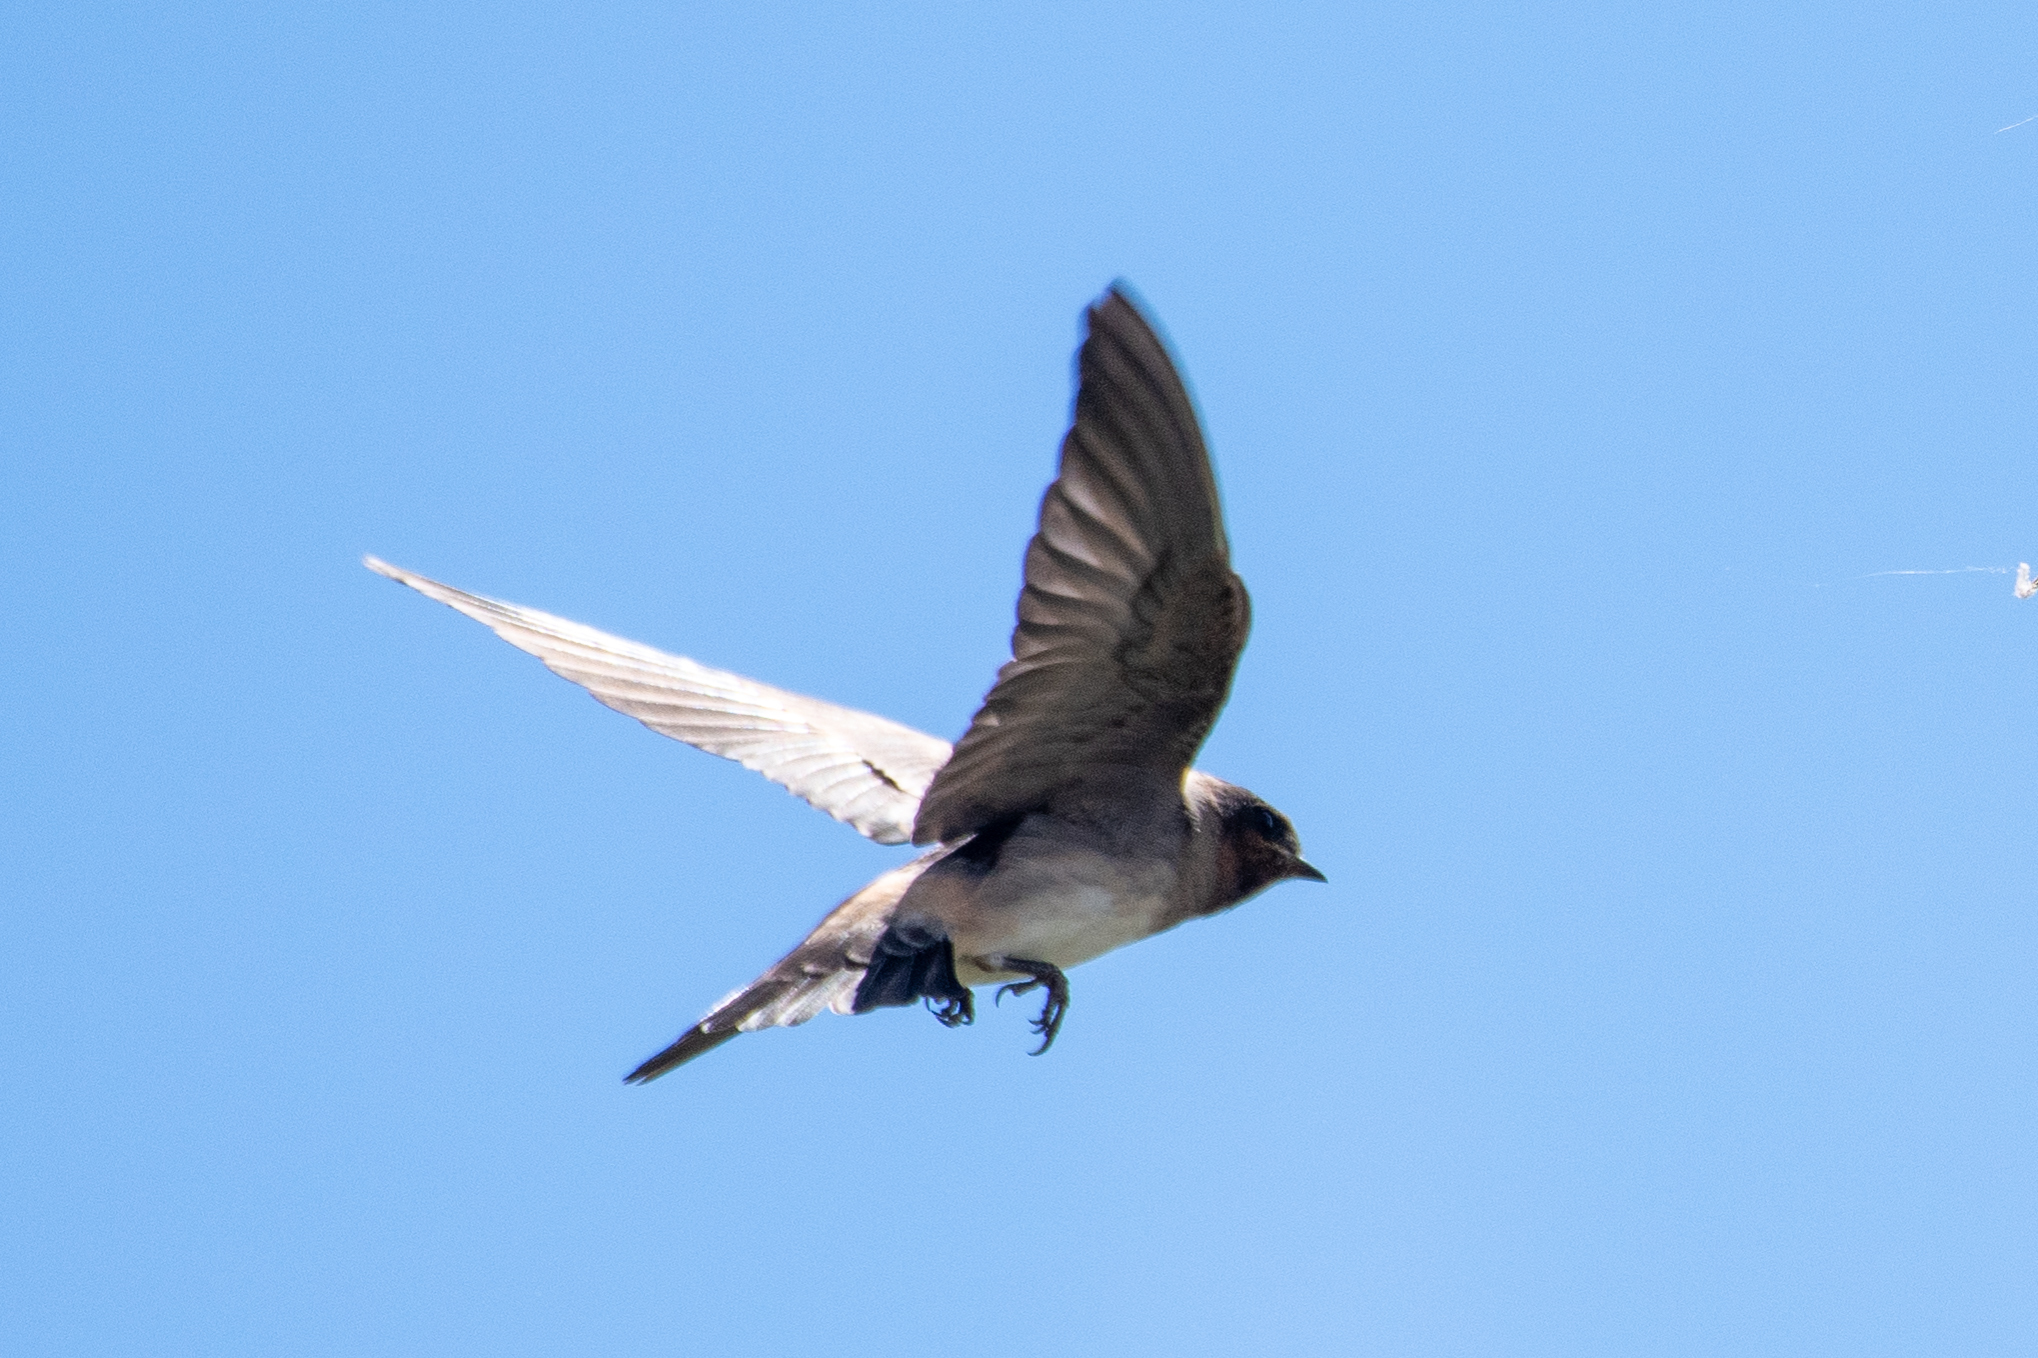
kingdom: Animalia
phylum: Chordata
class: Aves
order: Passeriformes
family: Hirundinidae
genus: Petrochelidon
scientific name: Petrochelidon pyrrhonota
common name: American cliff swallow
